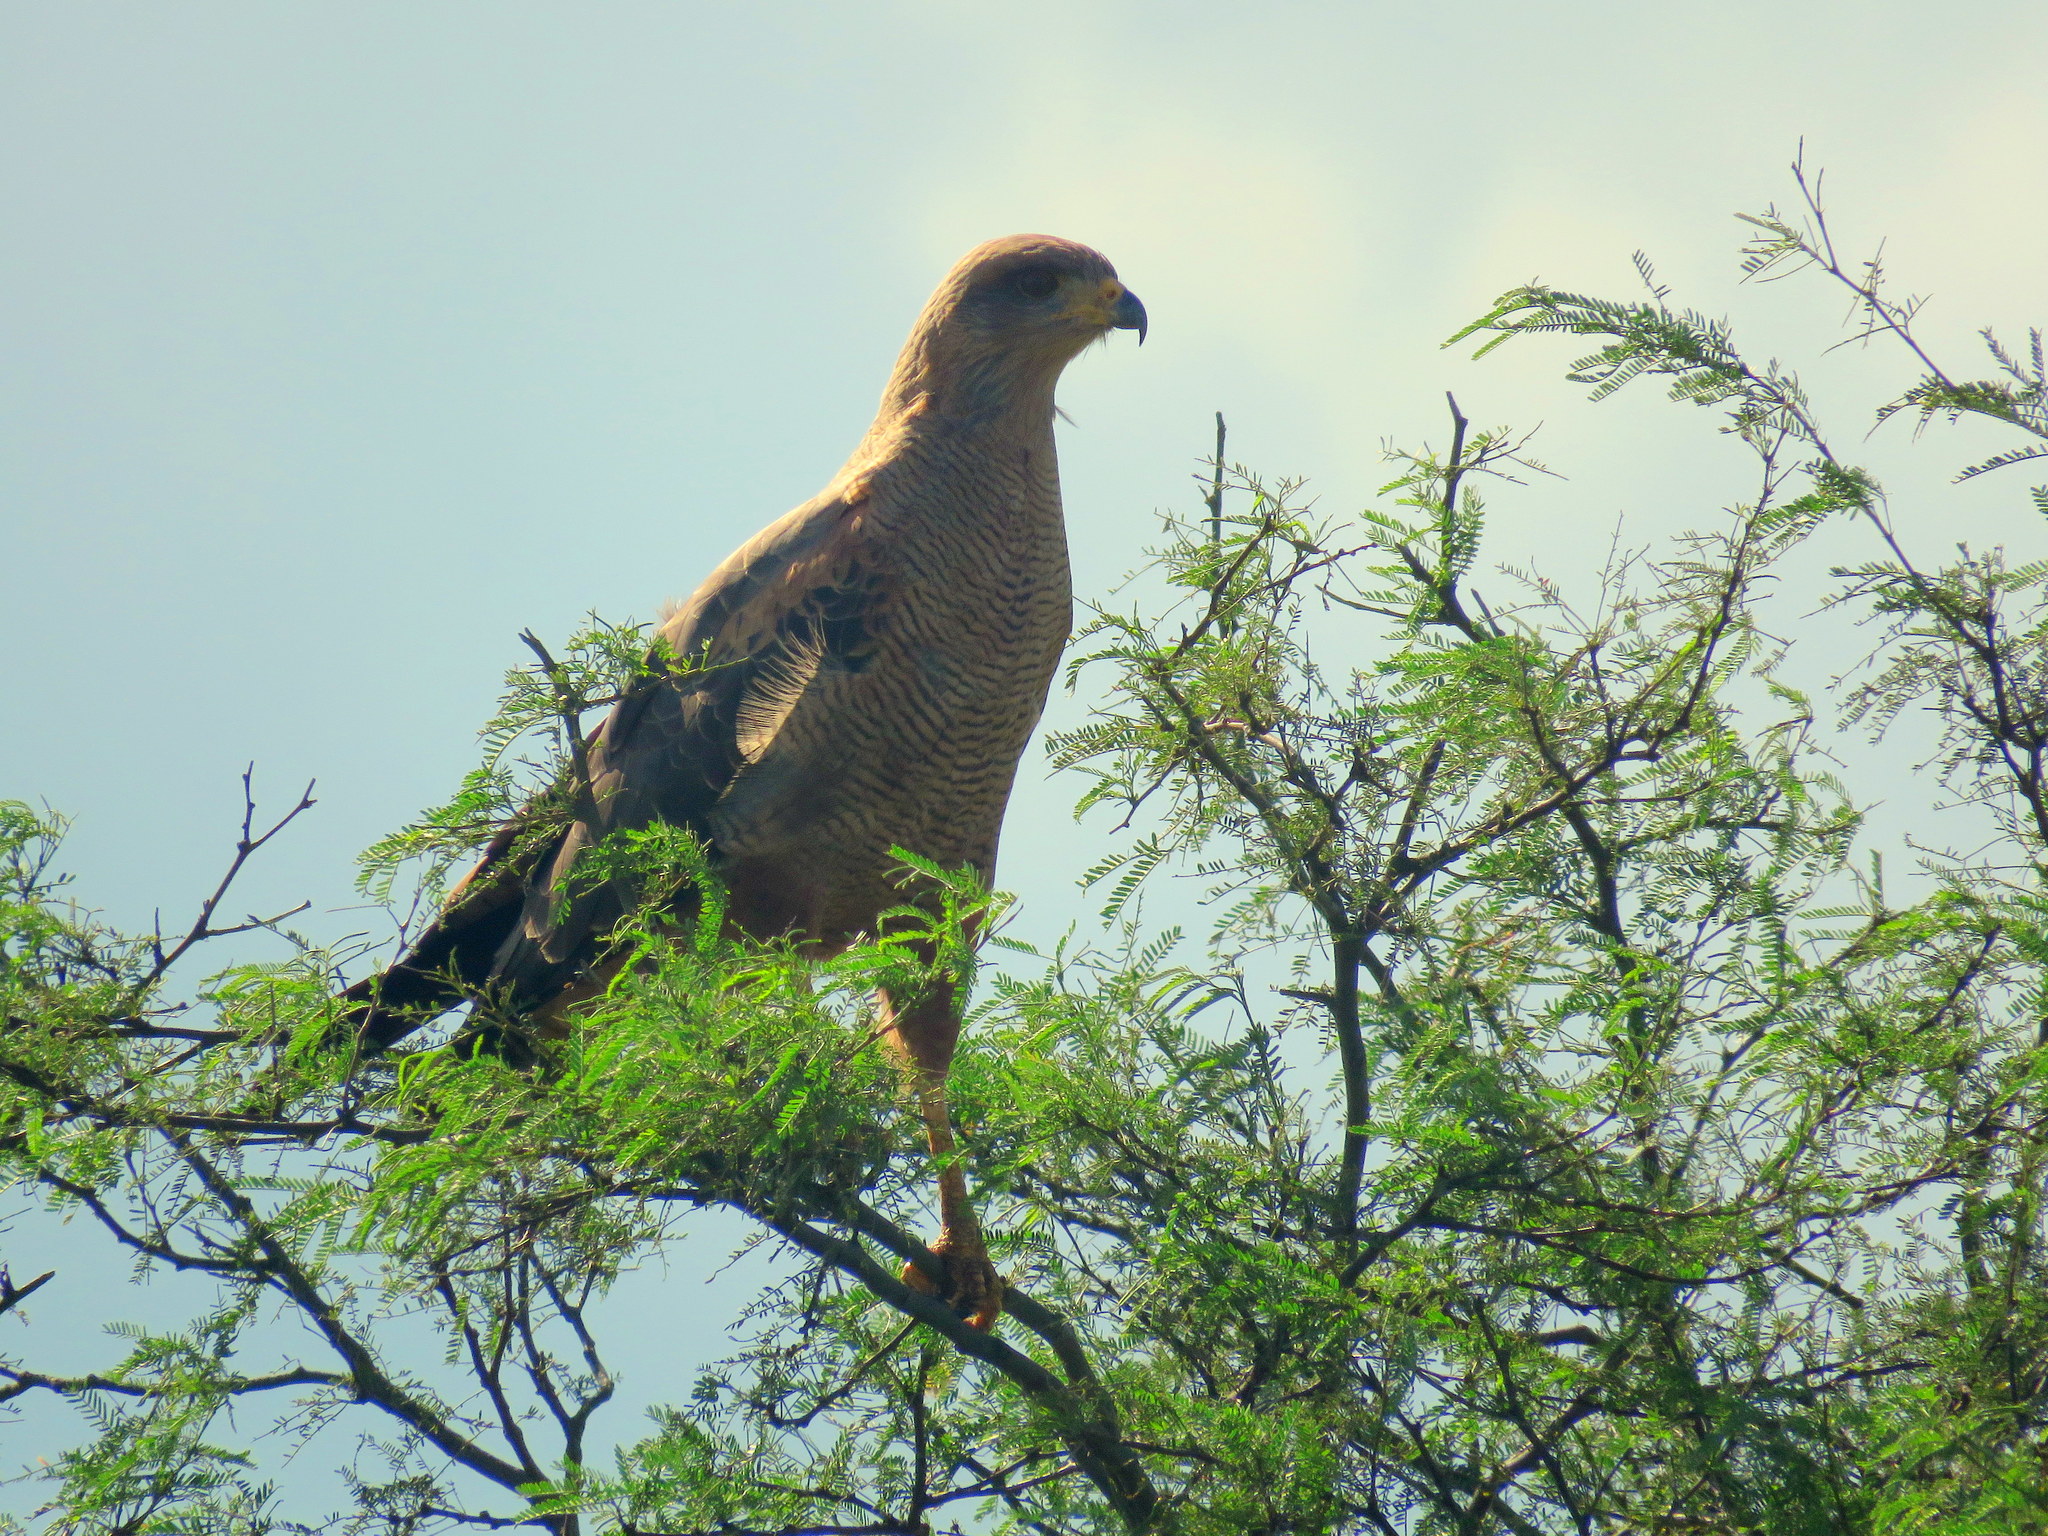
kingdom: Animalia
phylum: Chordata
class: Aves
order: Accipitriformes
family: Accipitridae
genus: Buteogallus
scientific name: Buteogallus meridionalis
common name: Savanna hawk
